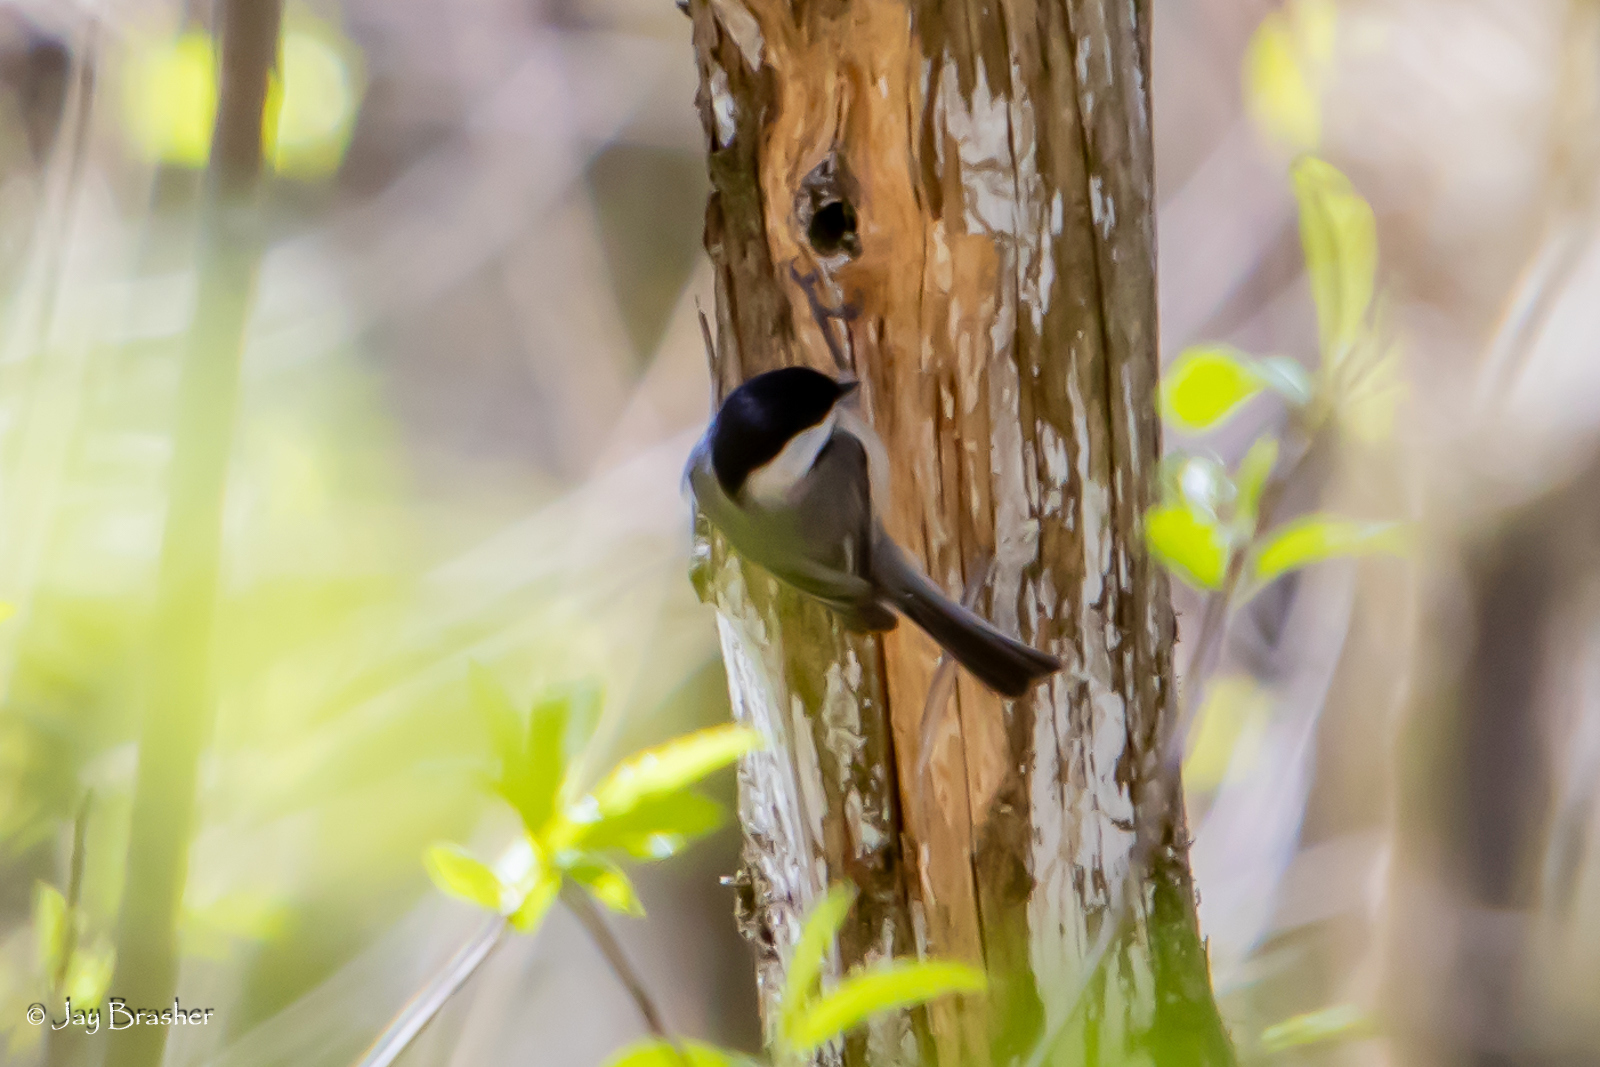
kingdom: Animalia
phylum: Chordata
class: Aves
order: Passeriformes
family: Paridae
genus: Poecile
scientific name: Poecile carolinensis
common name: Carolina chickadee
